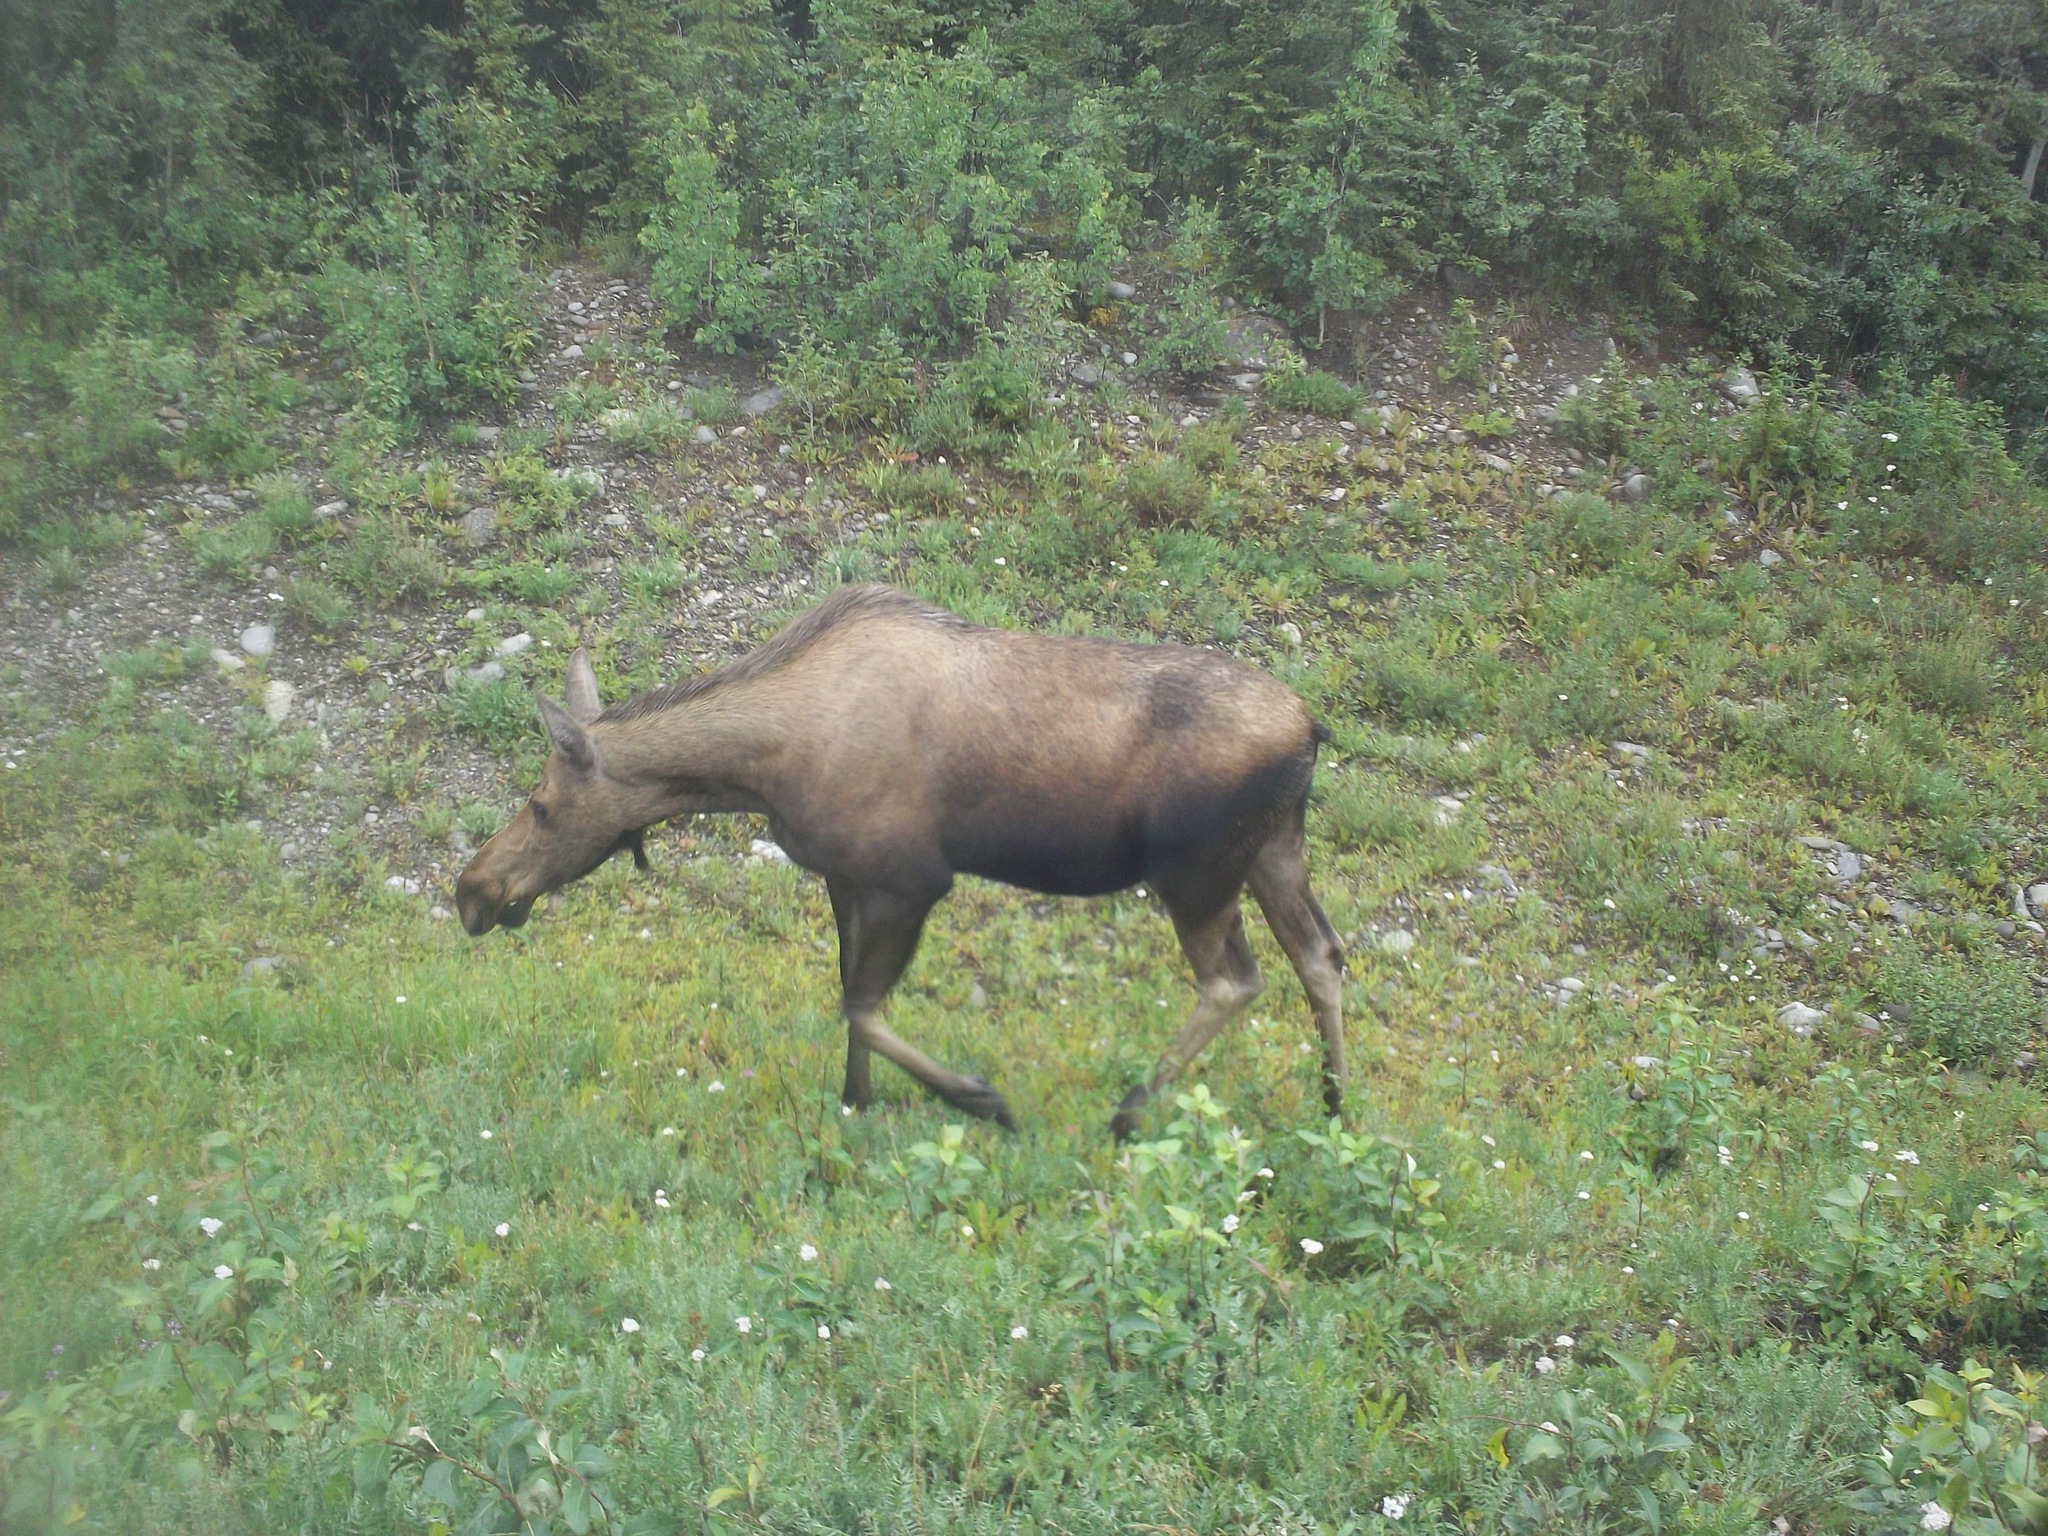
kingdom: Animalia
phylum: Chordata
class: Mammalia
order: Artiodactyla
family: Cervidae
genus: Alces
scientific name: Alces alces
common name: Moose
